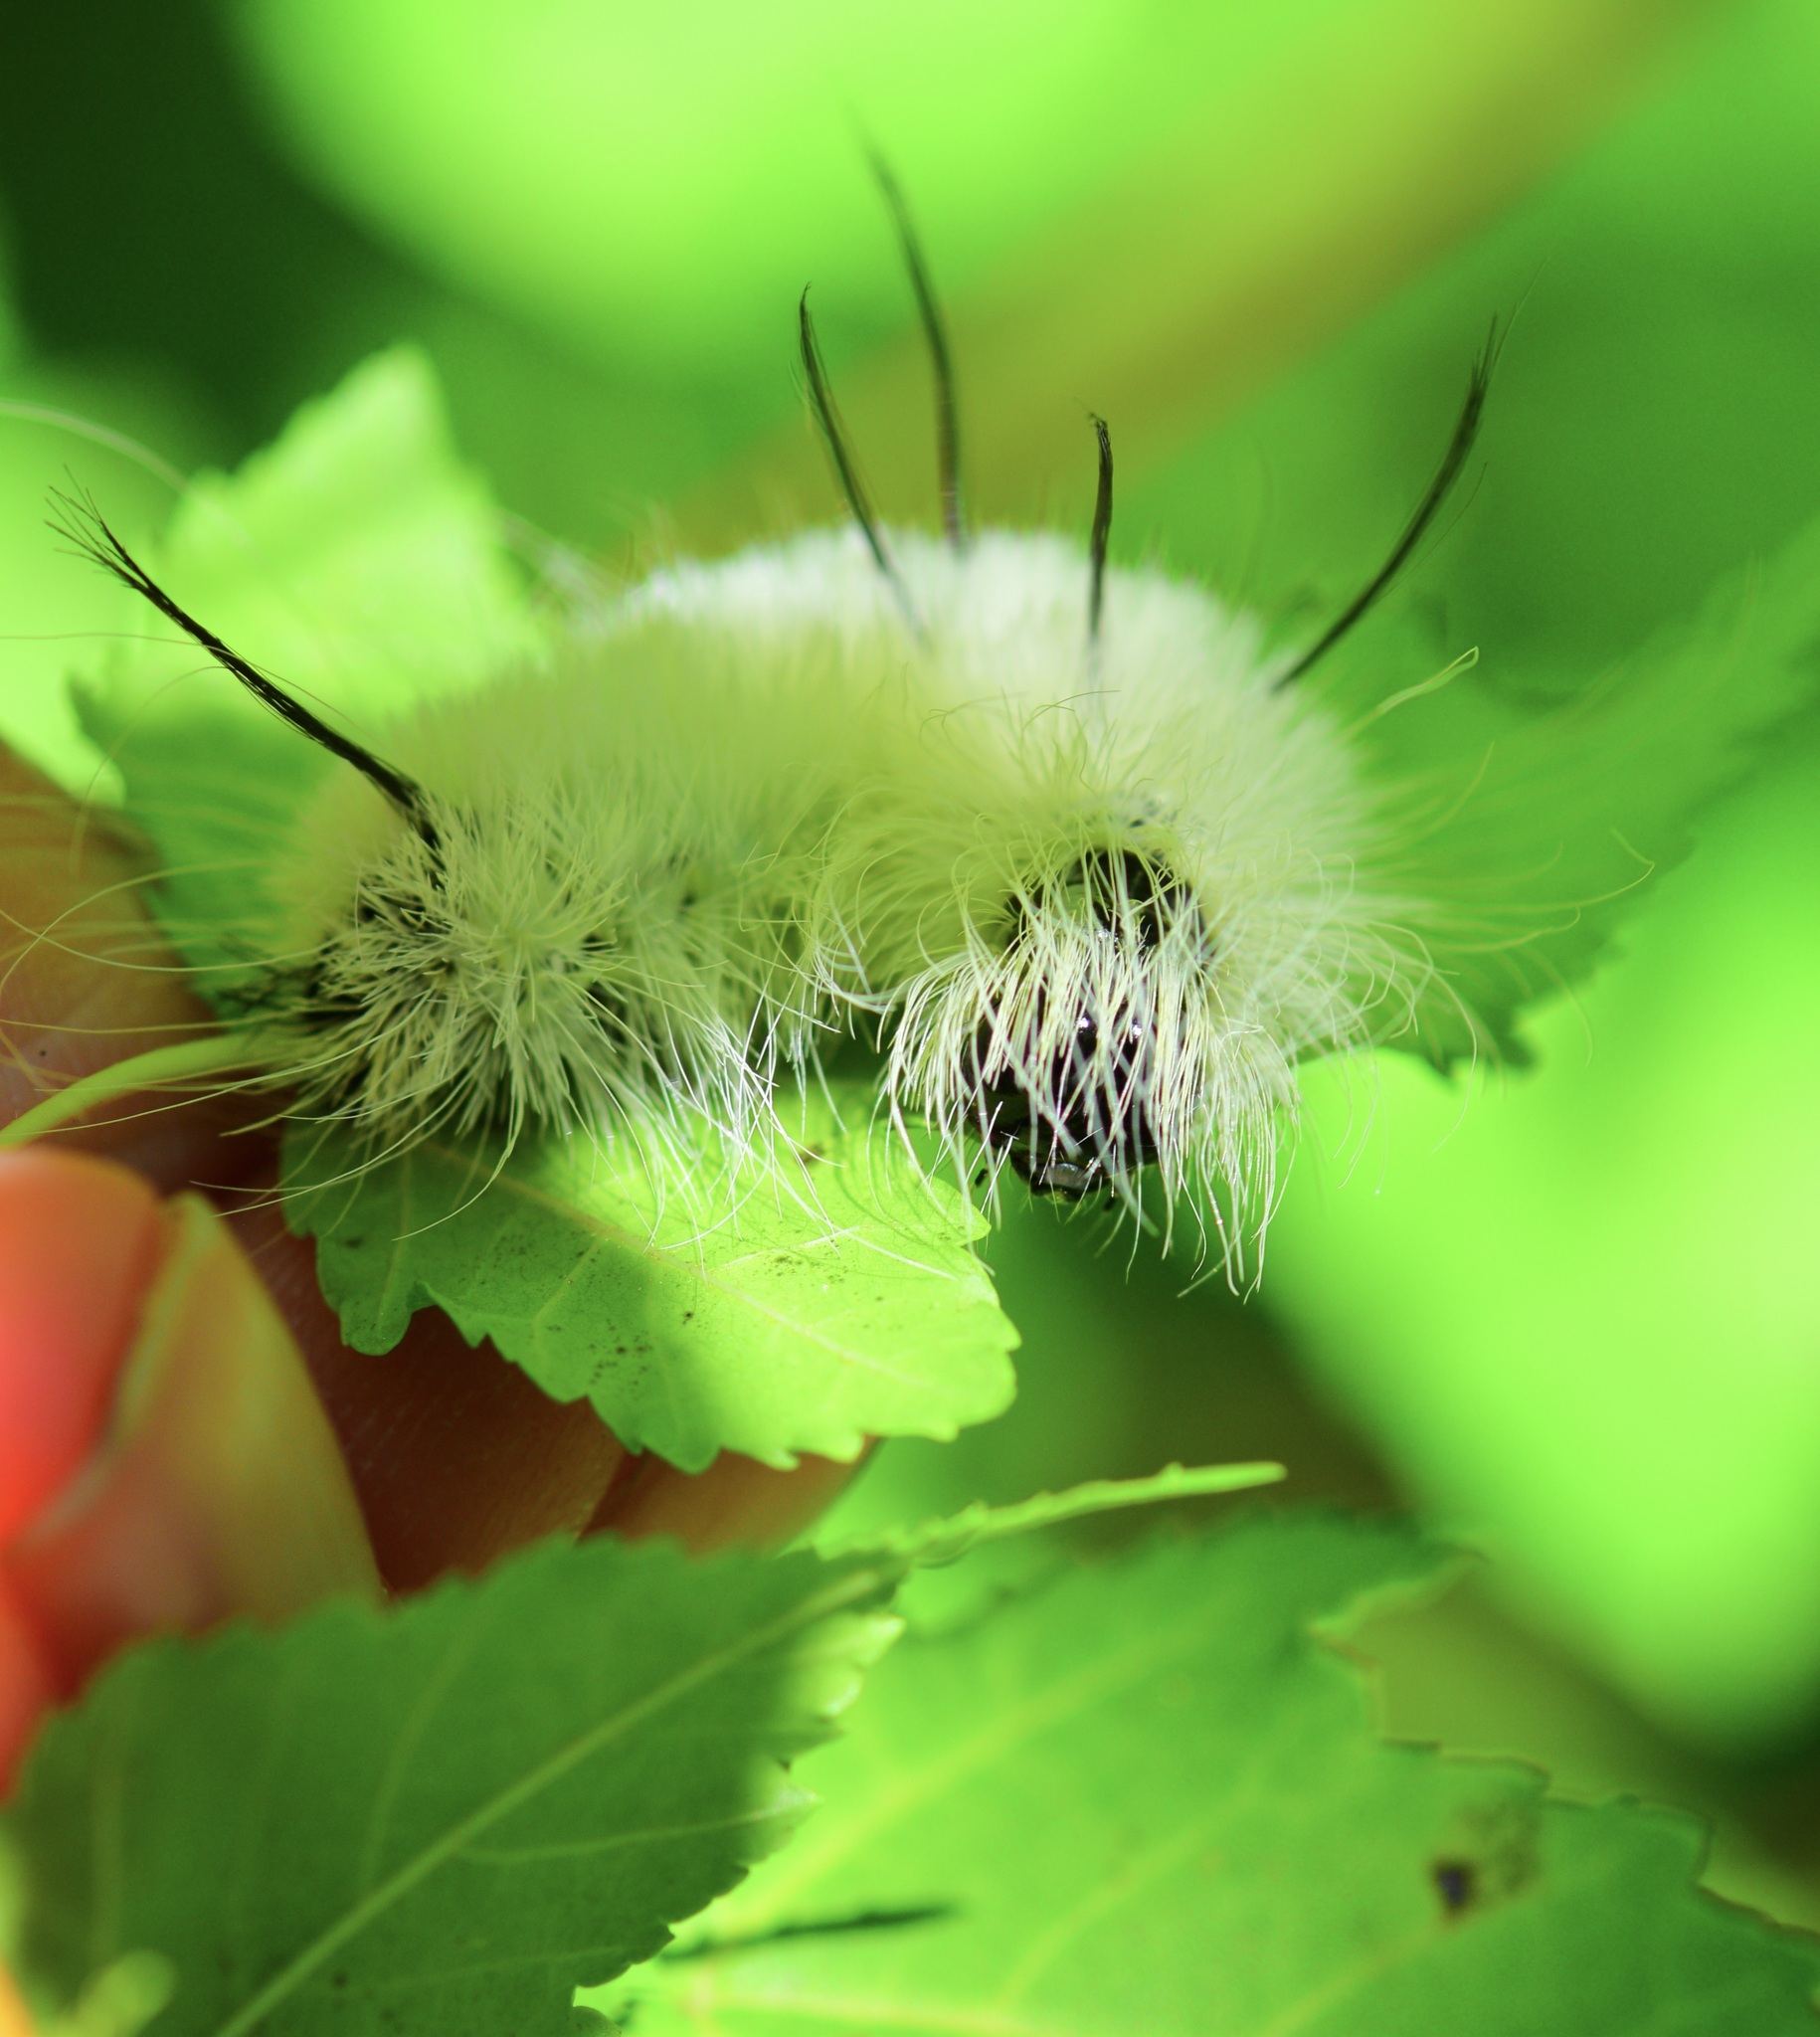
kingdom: Animalia
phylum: Arthropoda
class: Insecta
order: Lepidoptera
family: Noctuidae
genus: Acronicta
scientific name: Acronicta americana
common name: American dagger
